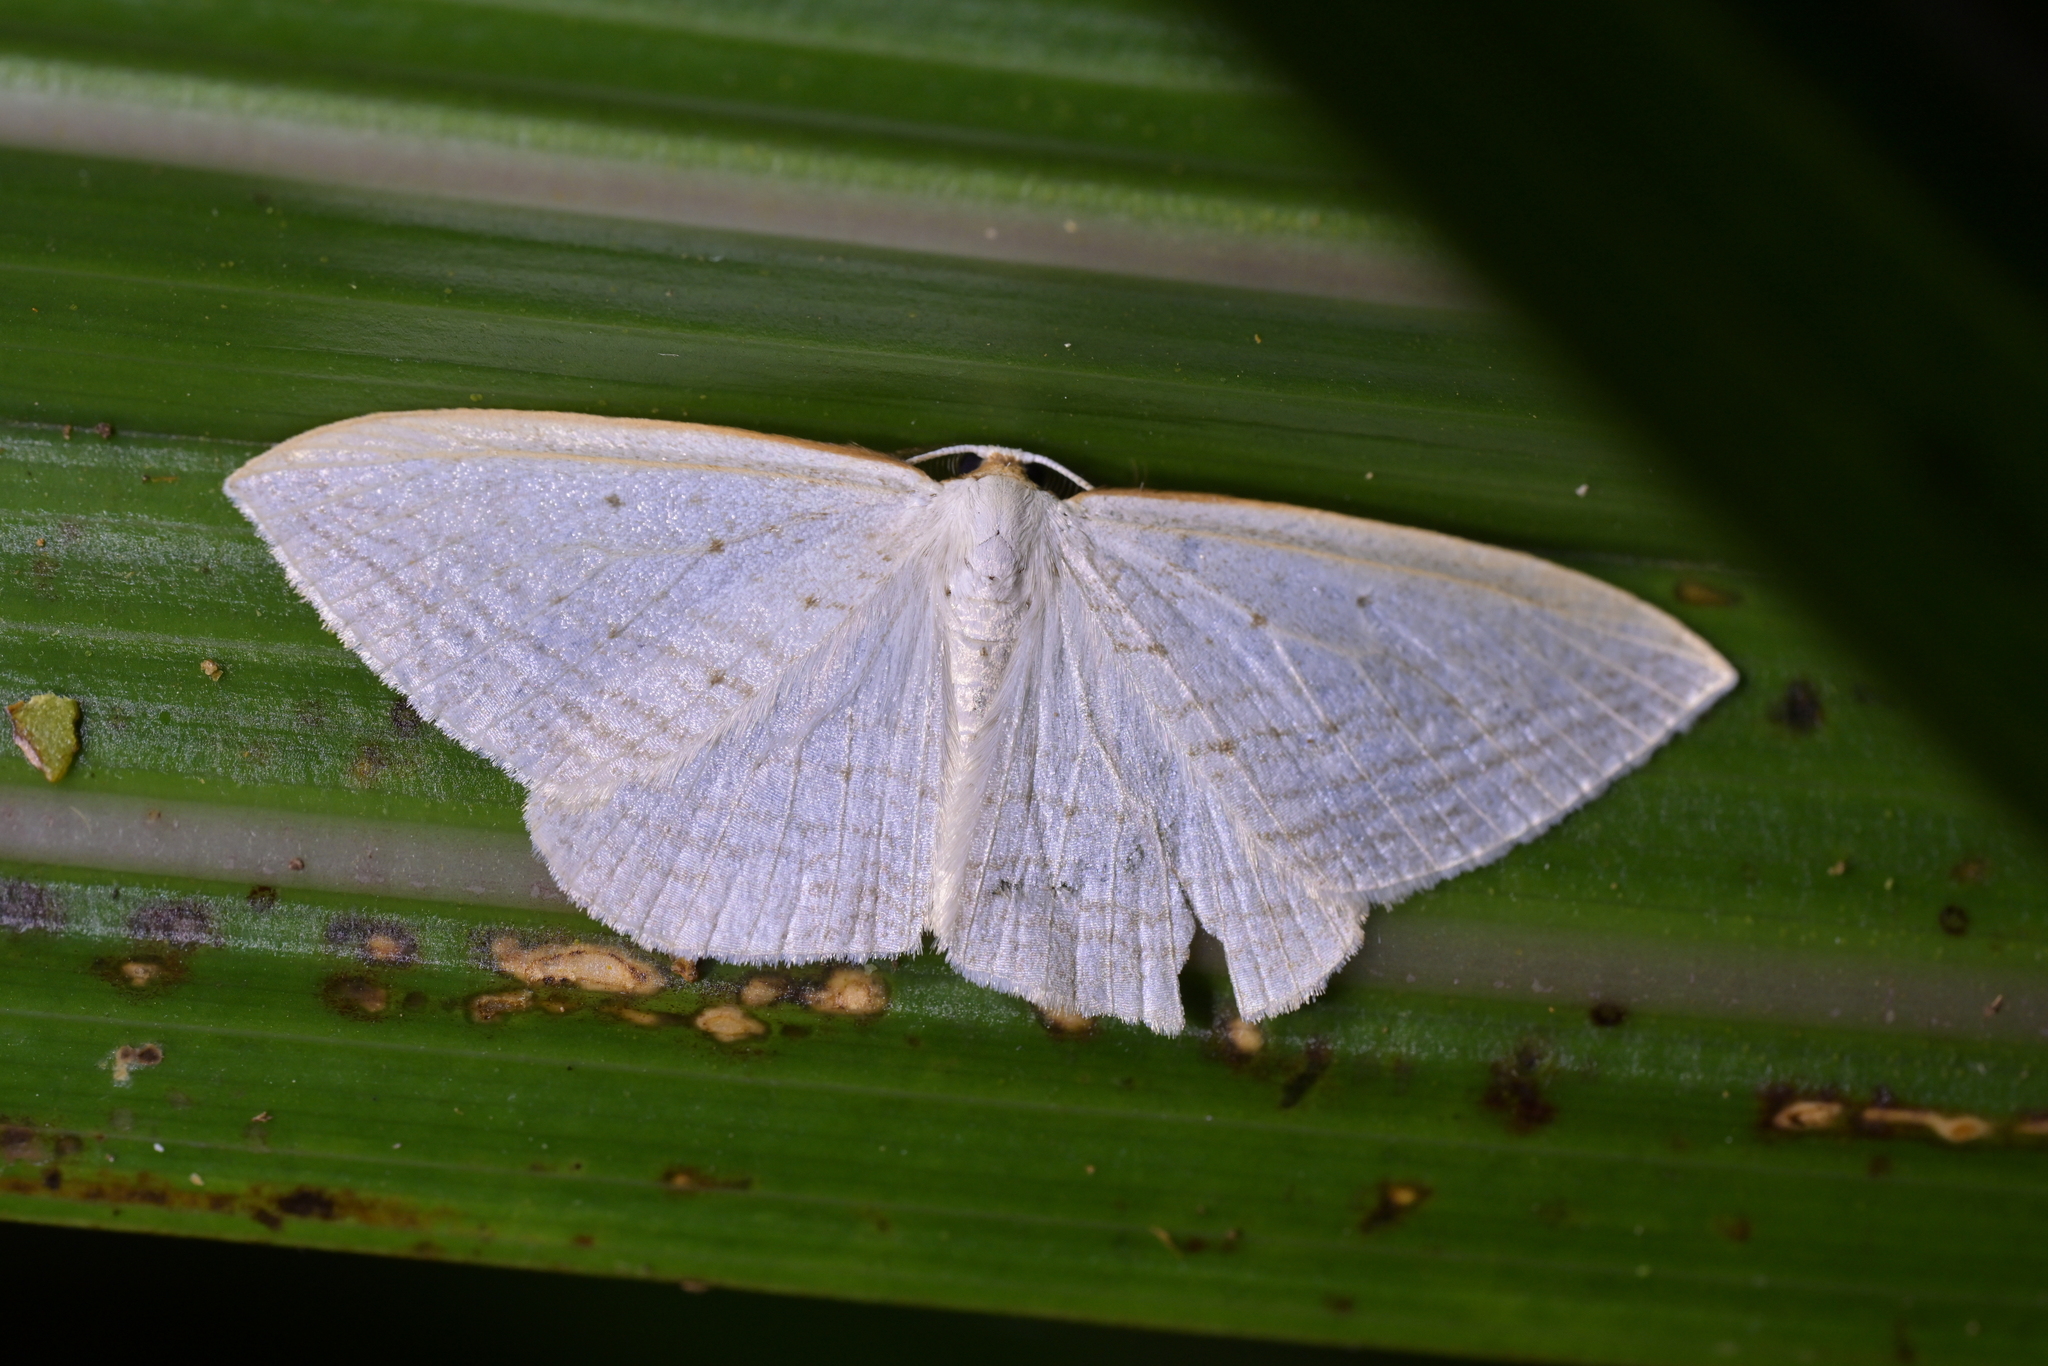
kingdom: Animalia
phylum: Arthropoda
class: Insecta
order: Lepidoptera
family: Geometridae
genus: Orthoclydon
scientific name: Orthoclydon praefectata
